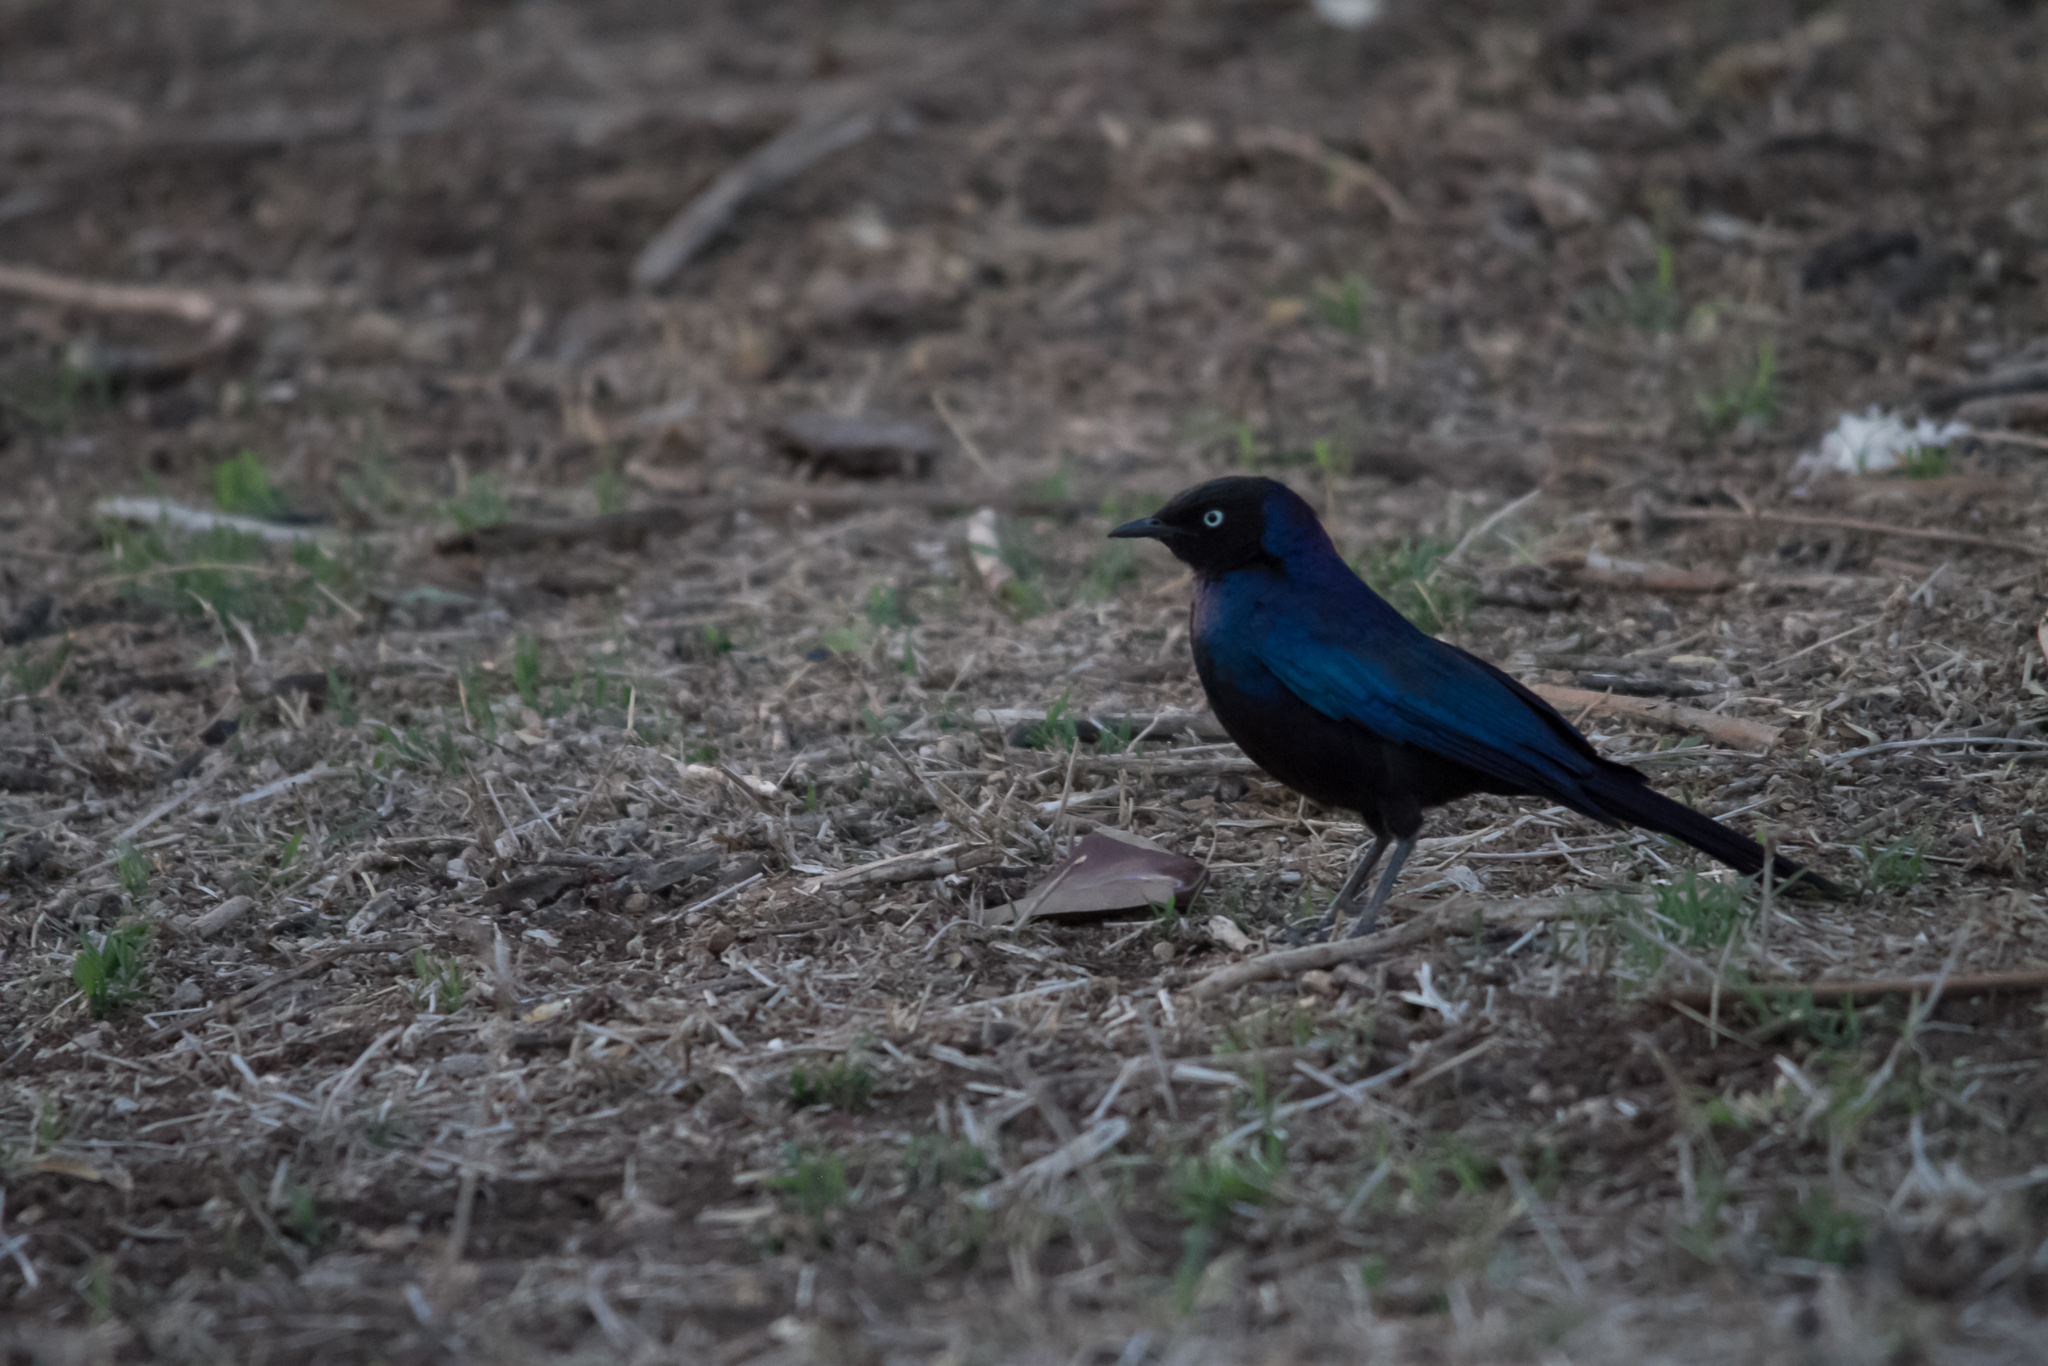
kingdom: Animalia
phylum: Chordata
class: Aves
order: Passeriformes
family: Sturnidae
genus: Lamprotornis
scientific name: Lamprotornis purpuroptera
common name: Rüppell's starling
